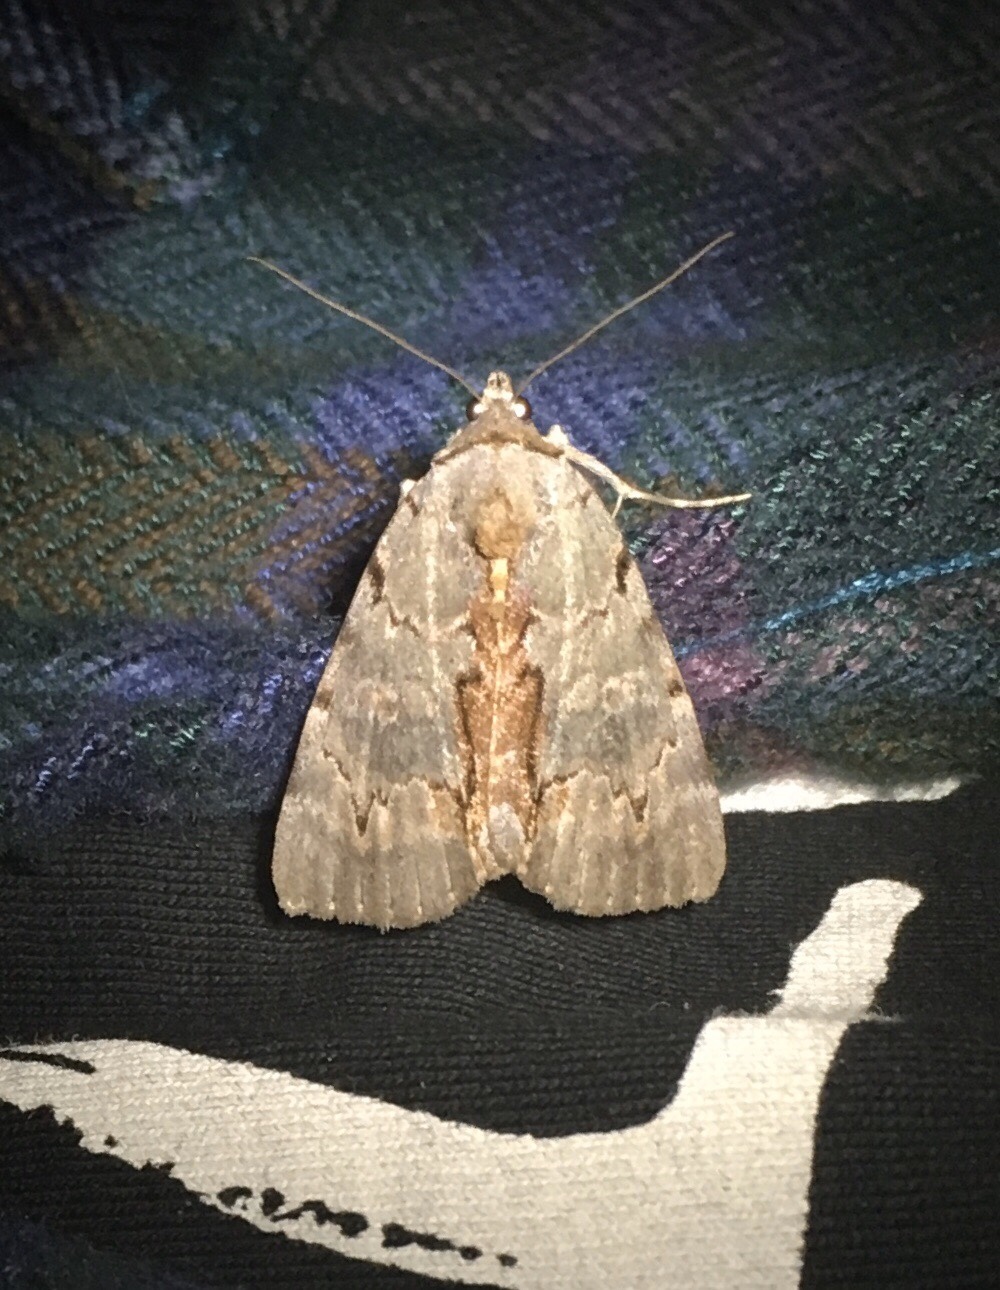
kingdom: Animalia
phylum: Arthropoda
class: Insecta
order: Lepidoptera
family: Erebidae
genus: Catocala
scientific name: Catocala grynea
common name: Woody underwing
